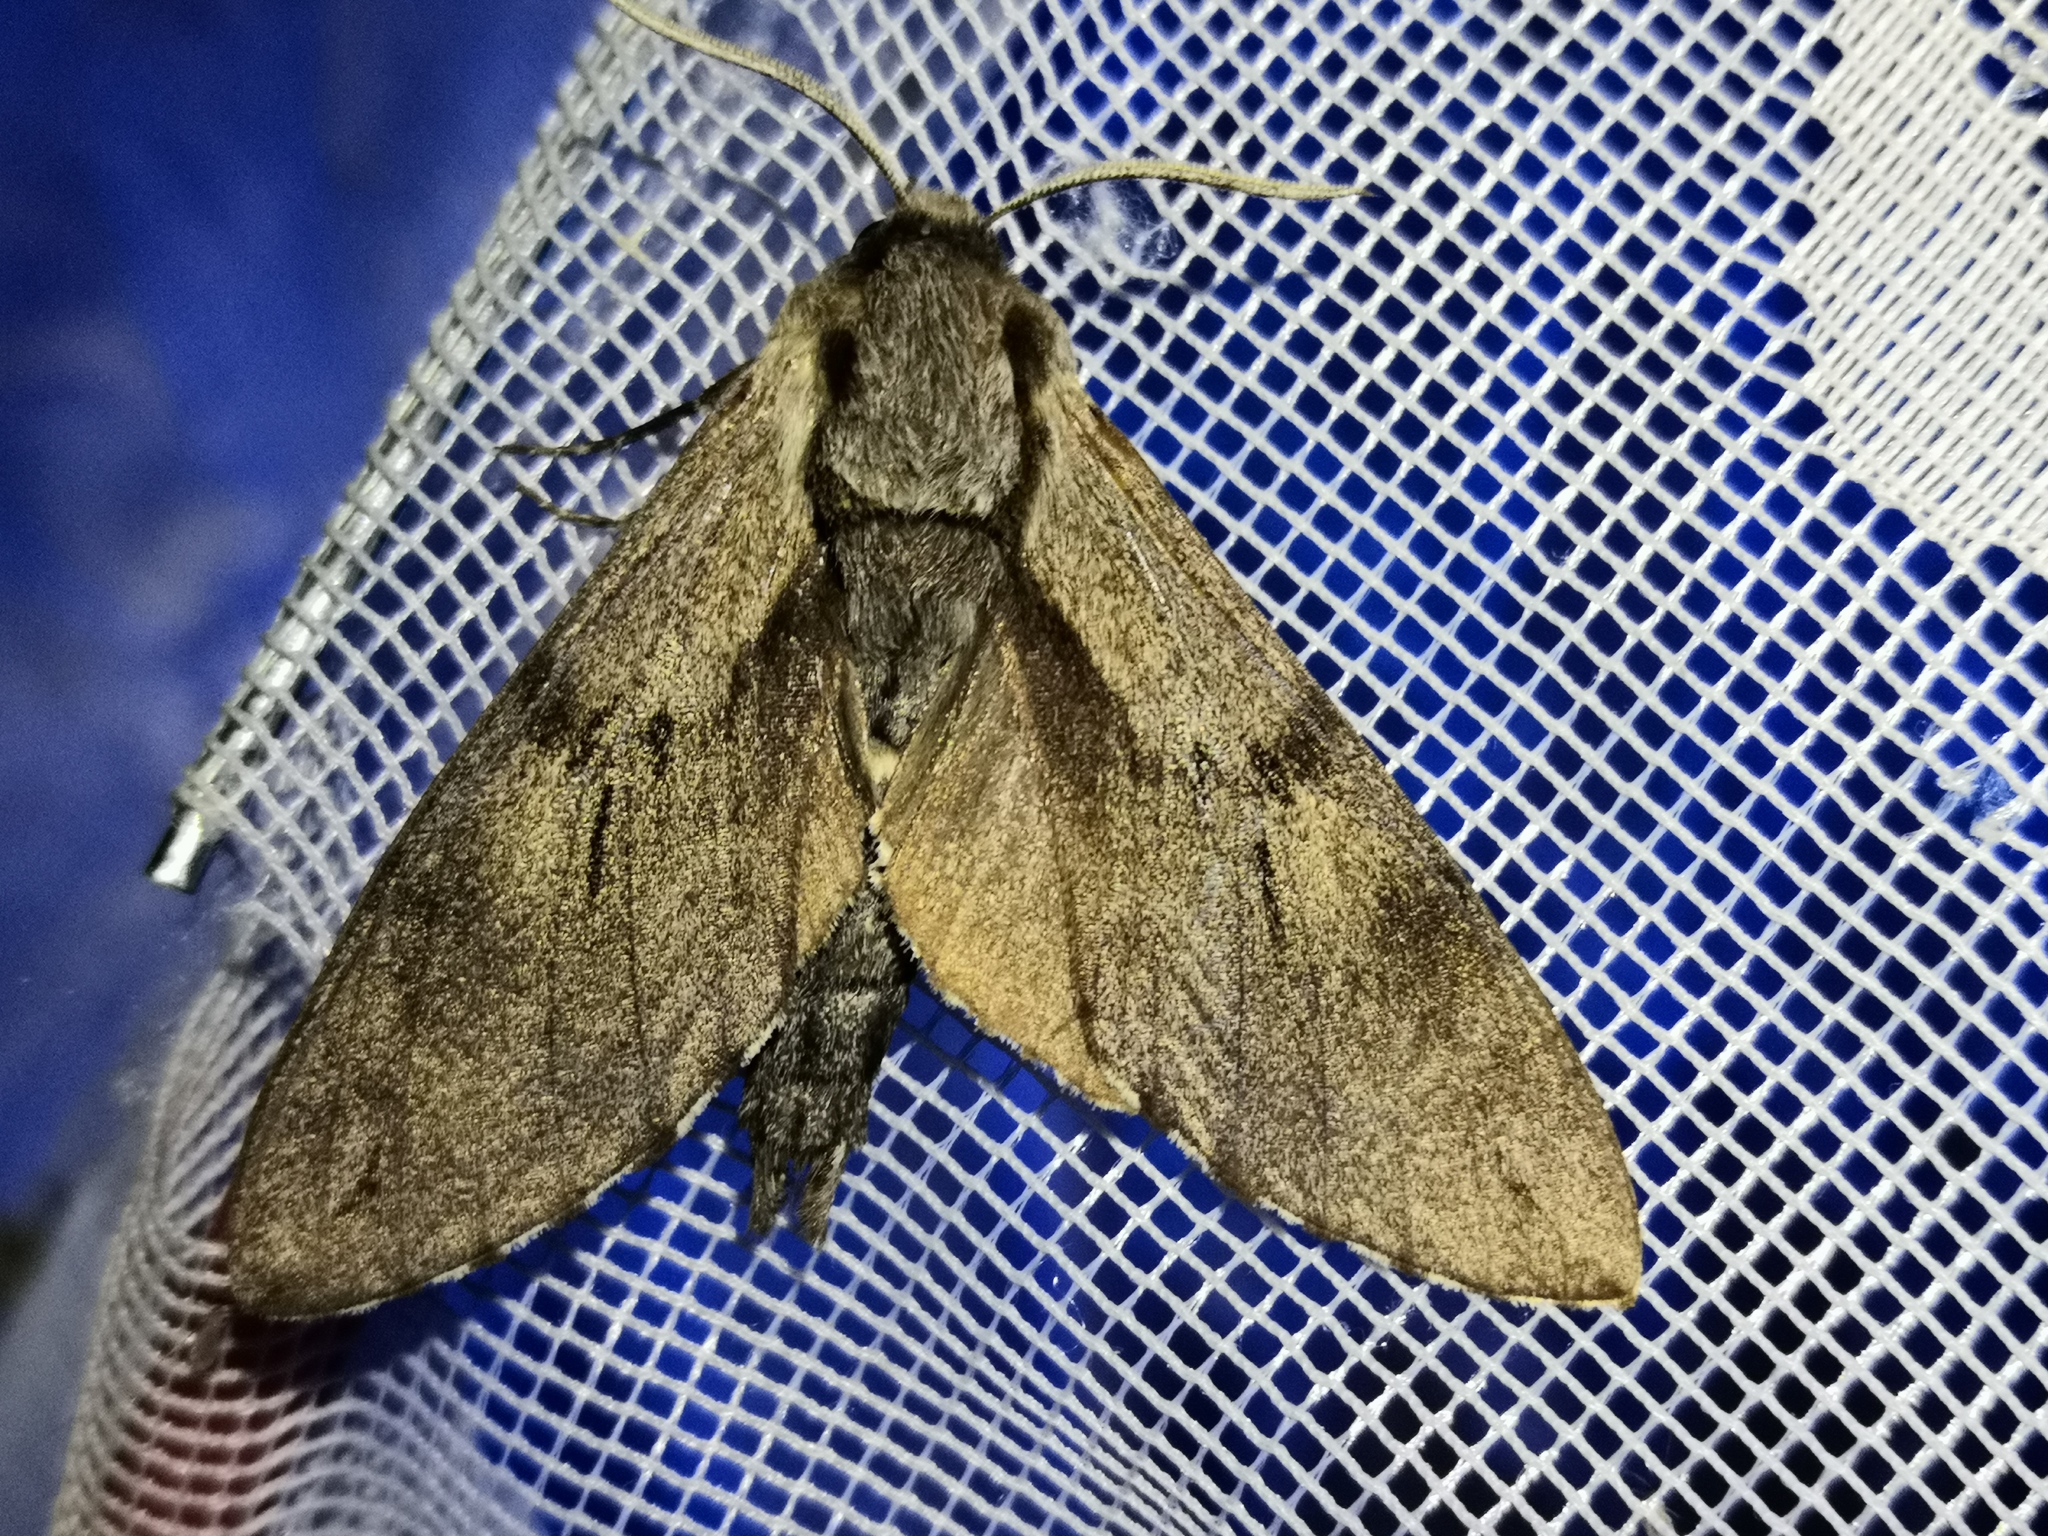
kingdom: Animalia
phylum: Arthropoda
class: Insecta
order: Lepidoptera
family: Sphingidae
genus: Sphinx
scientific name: Sphinx pinastri
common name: Pine hawk-moth
